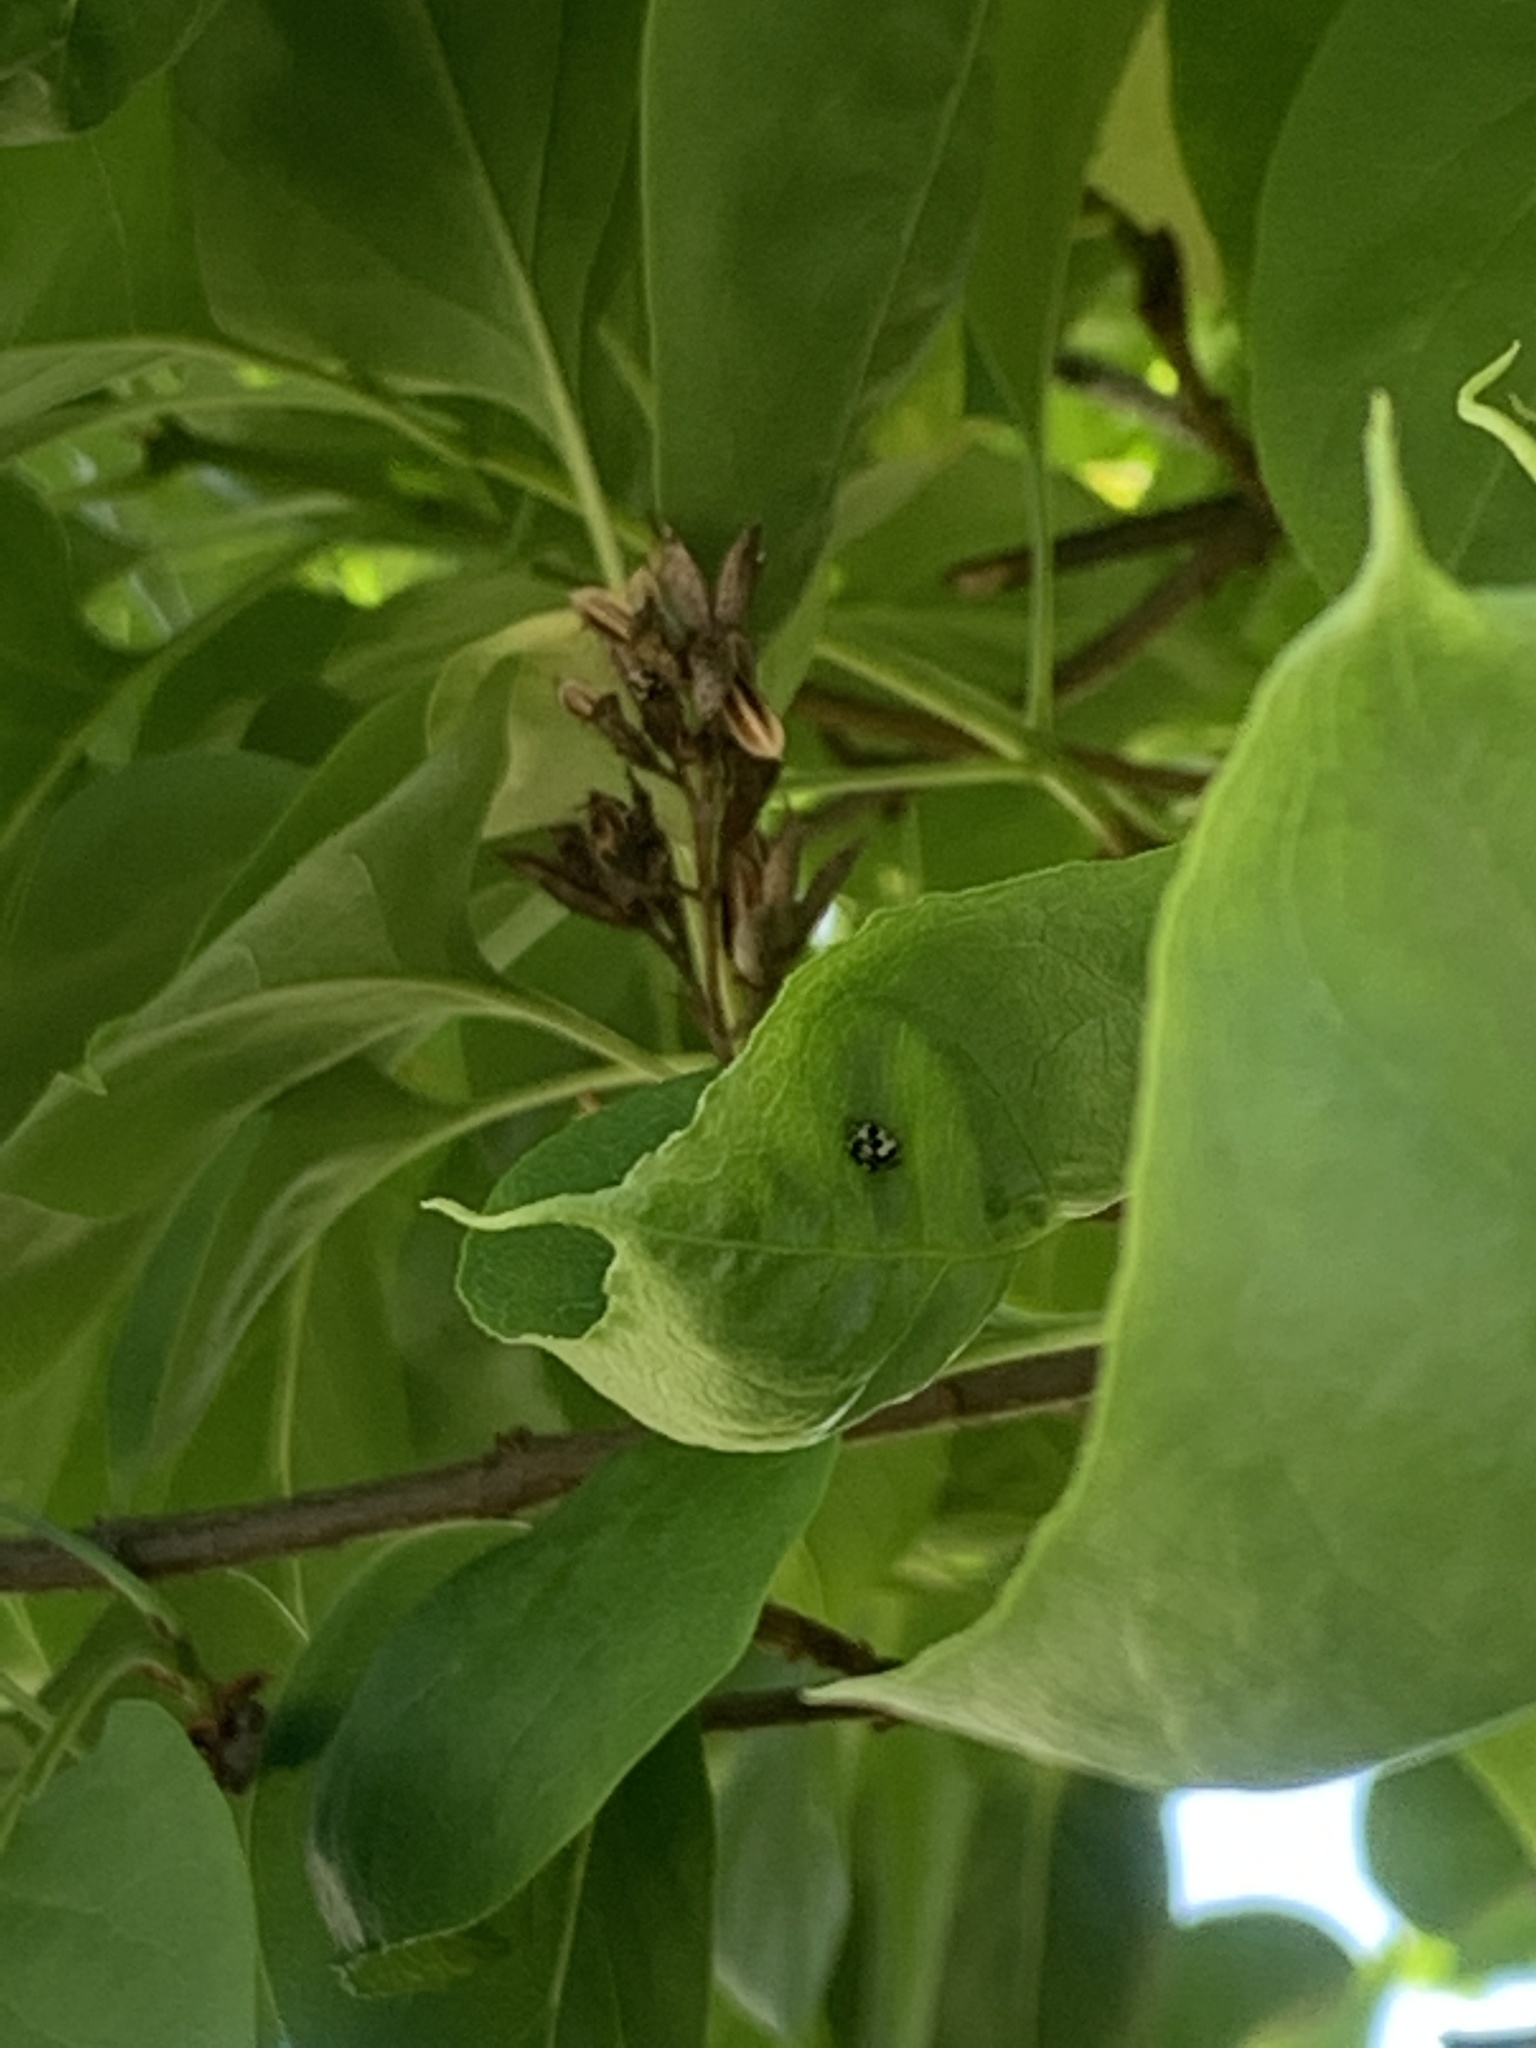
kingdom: Animalia
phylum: Arthropoda
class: Insecta
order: Coleoptera
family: Coccinellidae
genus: Psyllobora
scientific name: Psyllobora borealis
